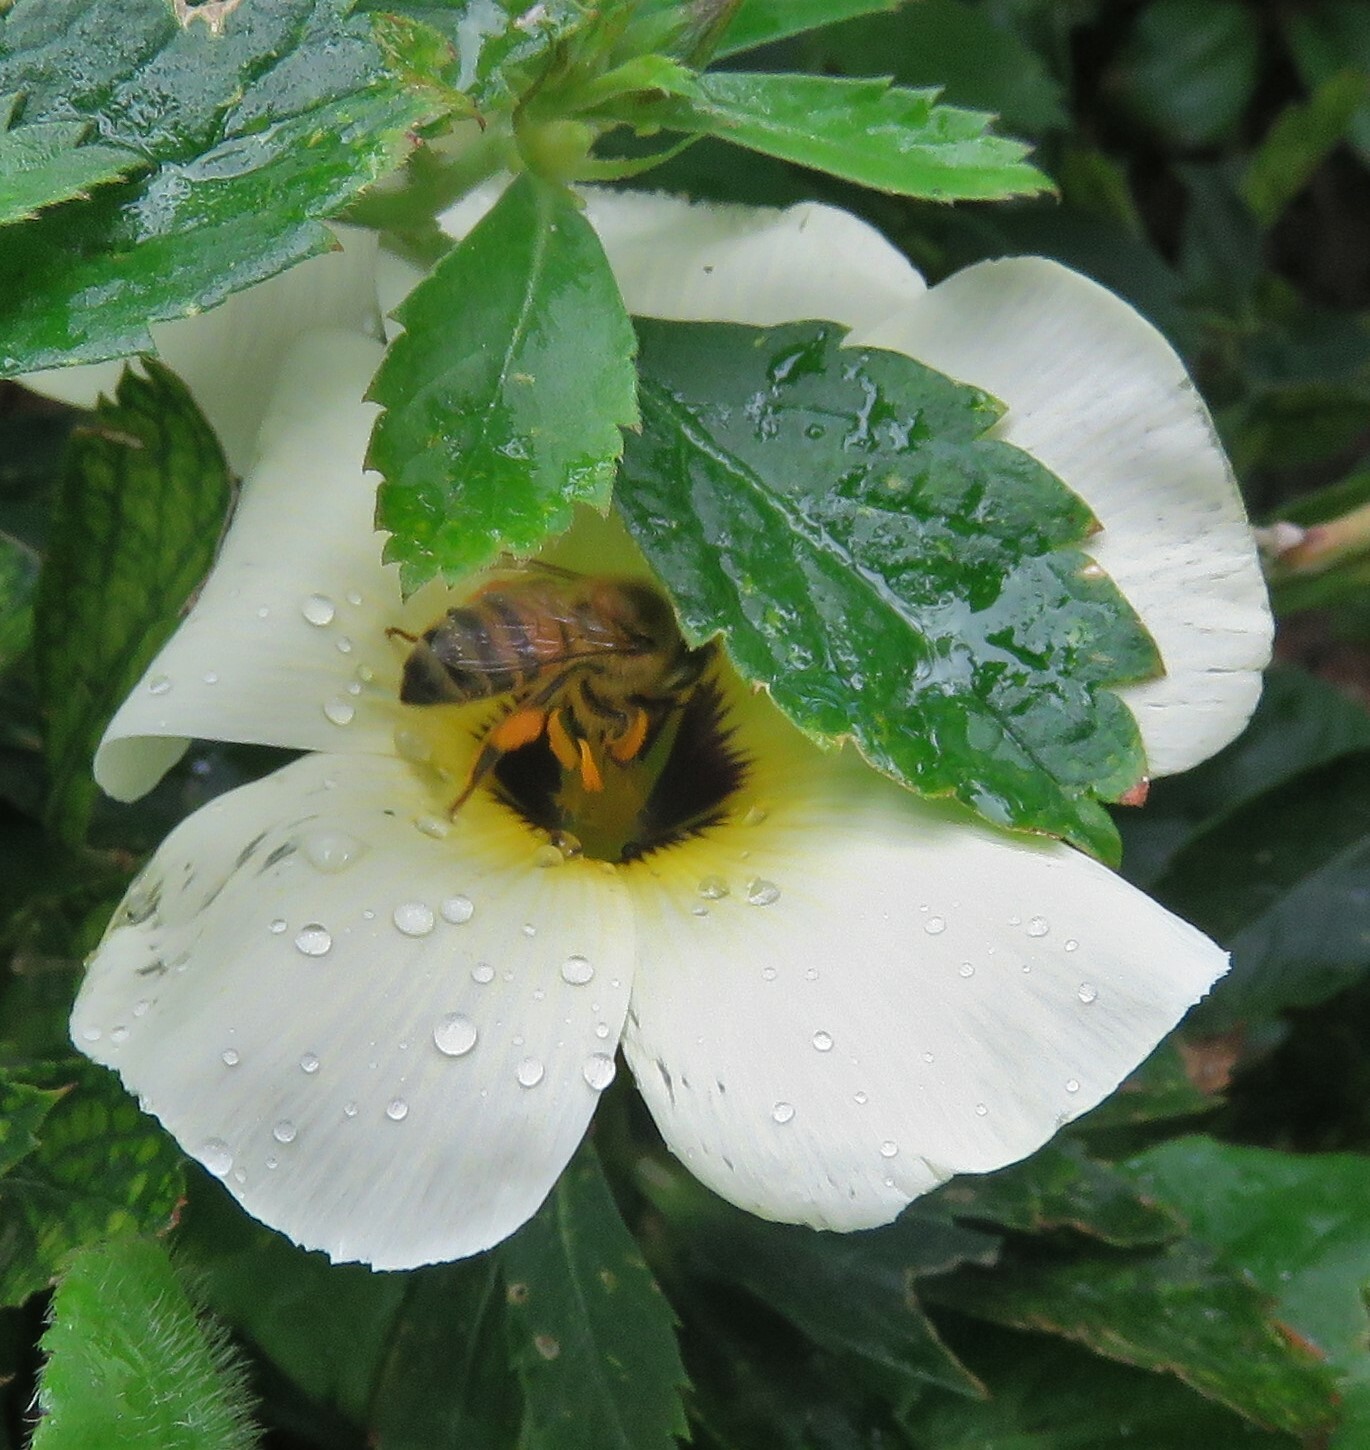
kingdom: Animalia
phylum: Arthropoda
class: Insecta
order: Hymenoptera
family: Apidae
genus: Apis
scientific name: Apis mellifera
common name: Honey bee
